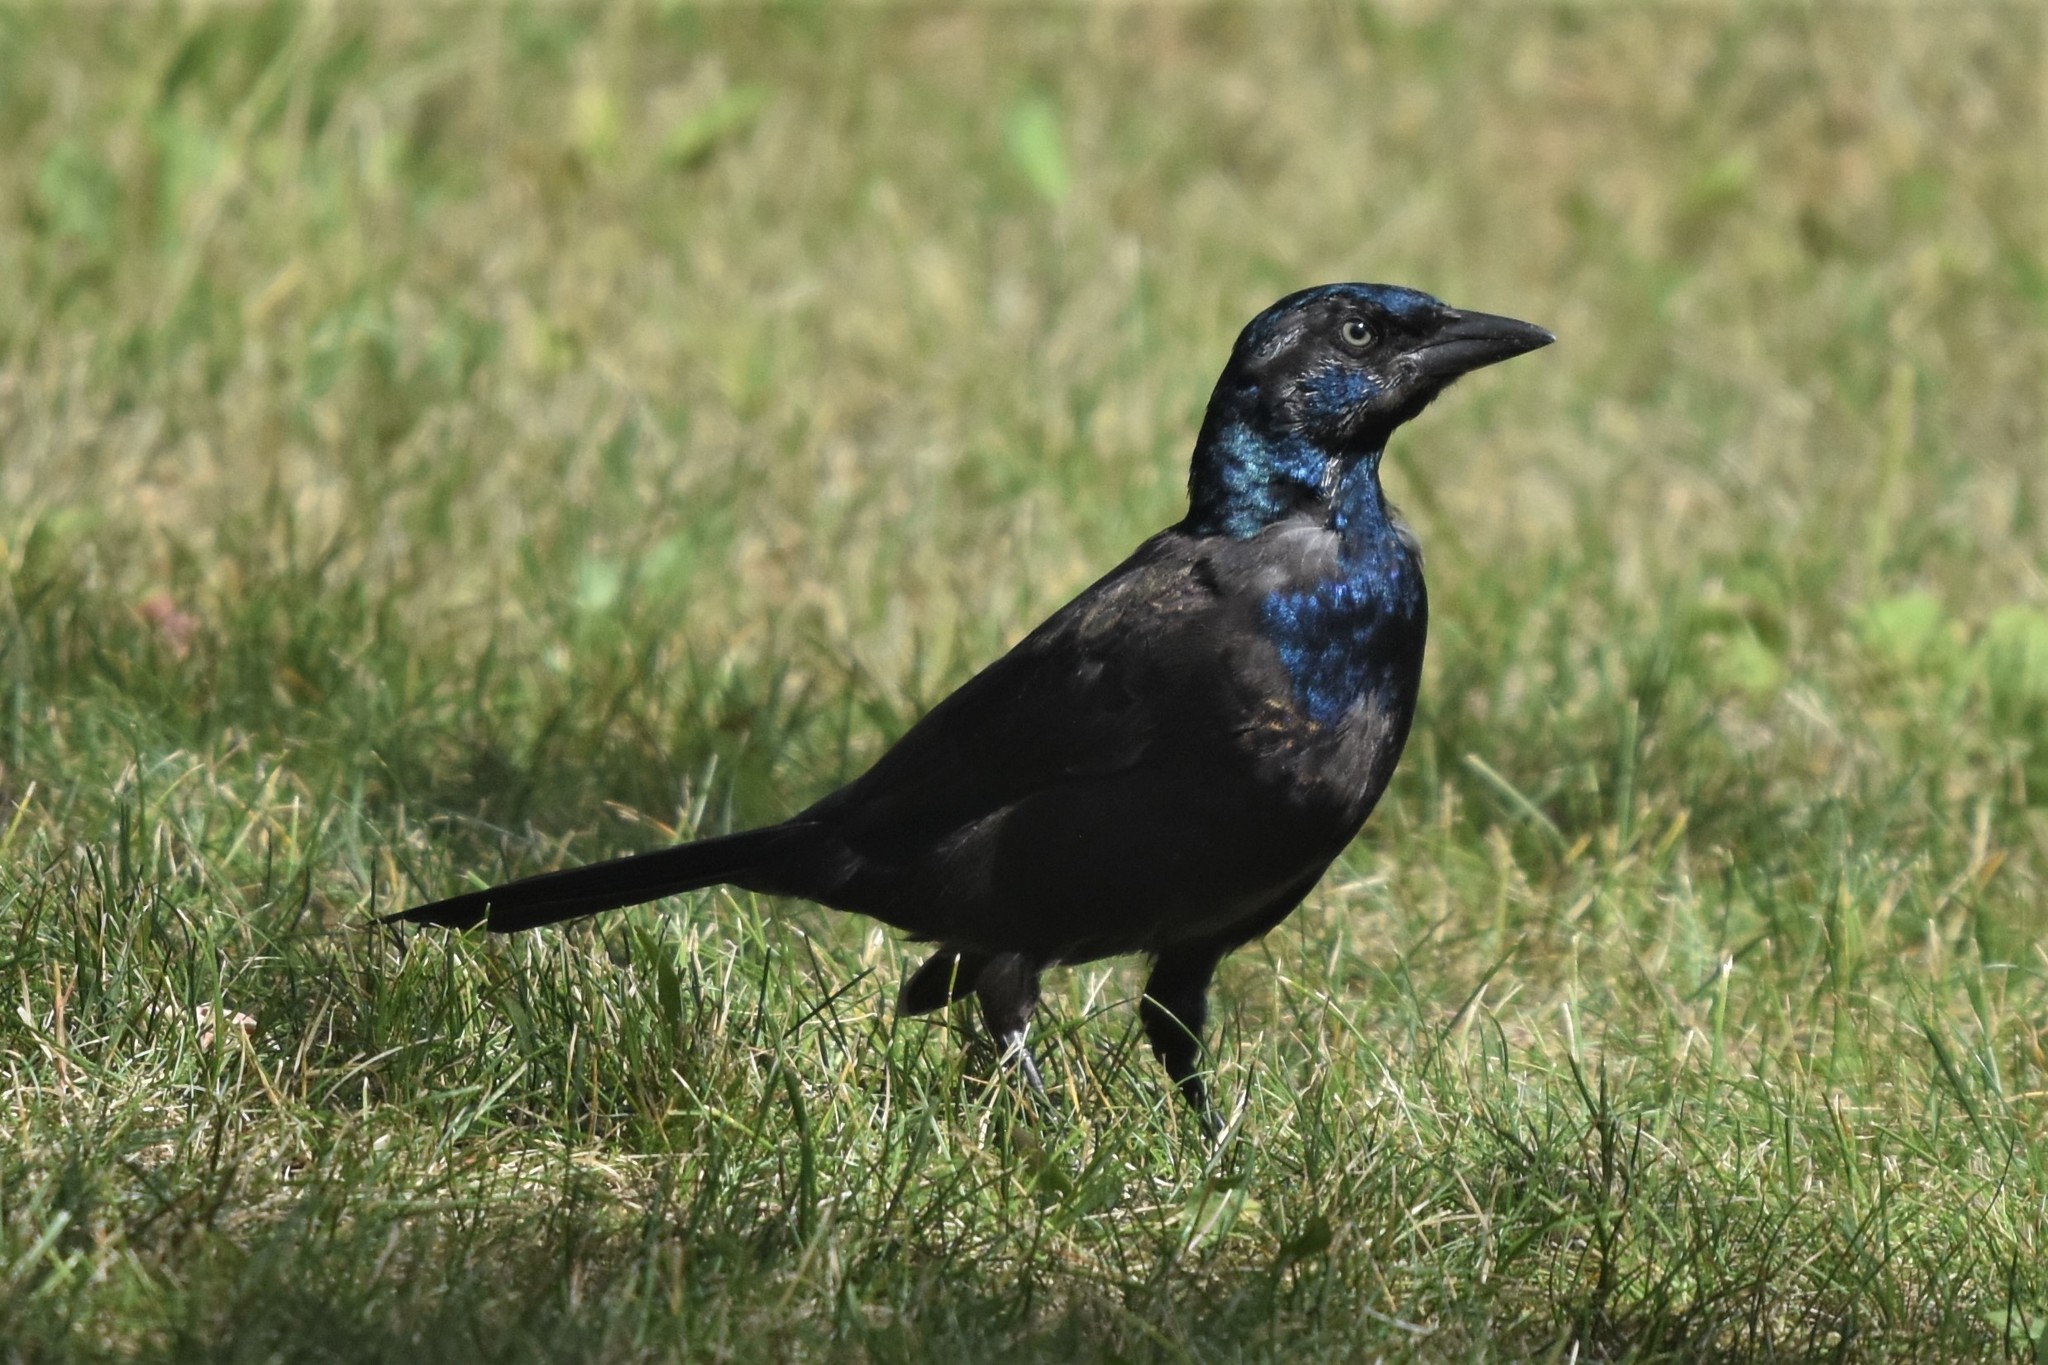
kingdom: Animalia
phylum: Chordata
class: Aves
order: Passeriformes
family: Icteridae
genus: Quiscalus
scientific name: Quiscalus quiscula
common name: Common grackle
